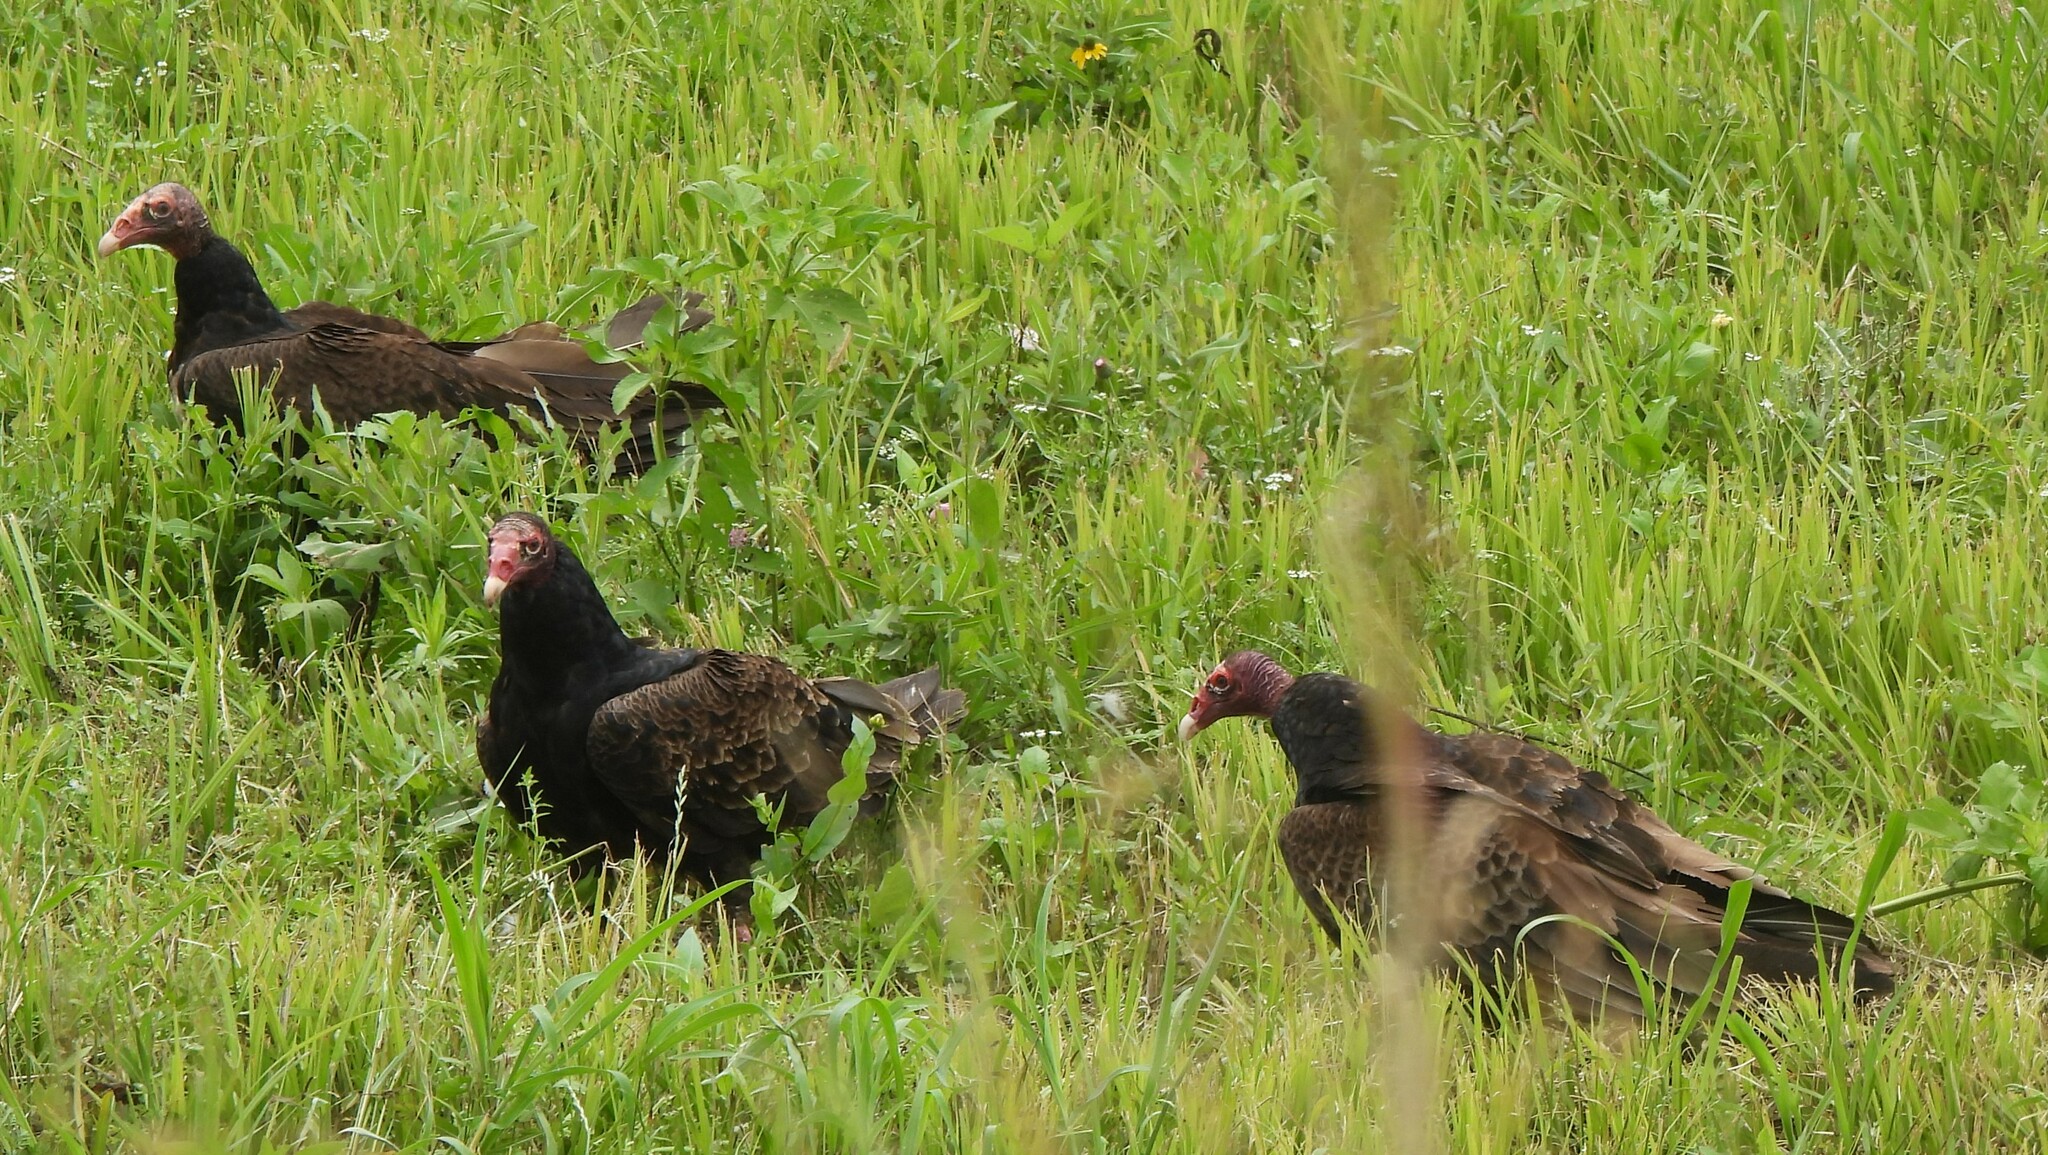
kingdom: Animalia
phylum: Chordata
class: Aves
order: Accipitriformes
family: Cathartidae
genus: Cathartes
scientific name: Cathartes aura
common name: Turkey vulture
